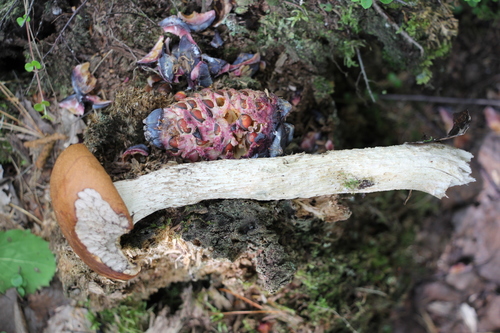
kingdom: Fungi
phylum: Basidiomycota
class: Agaricomycetes
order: Boletales
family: Boletaceae
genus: Leccinum
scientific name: Leccinum
